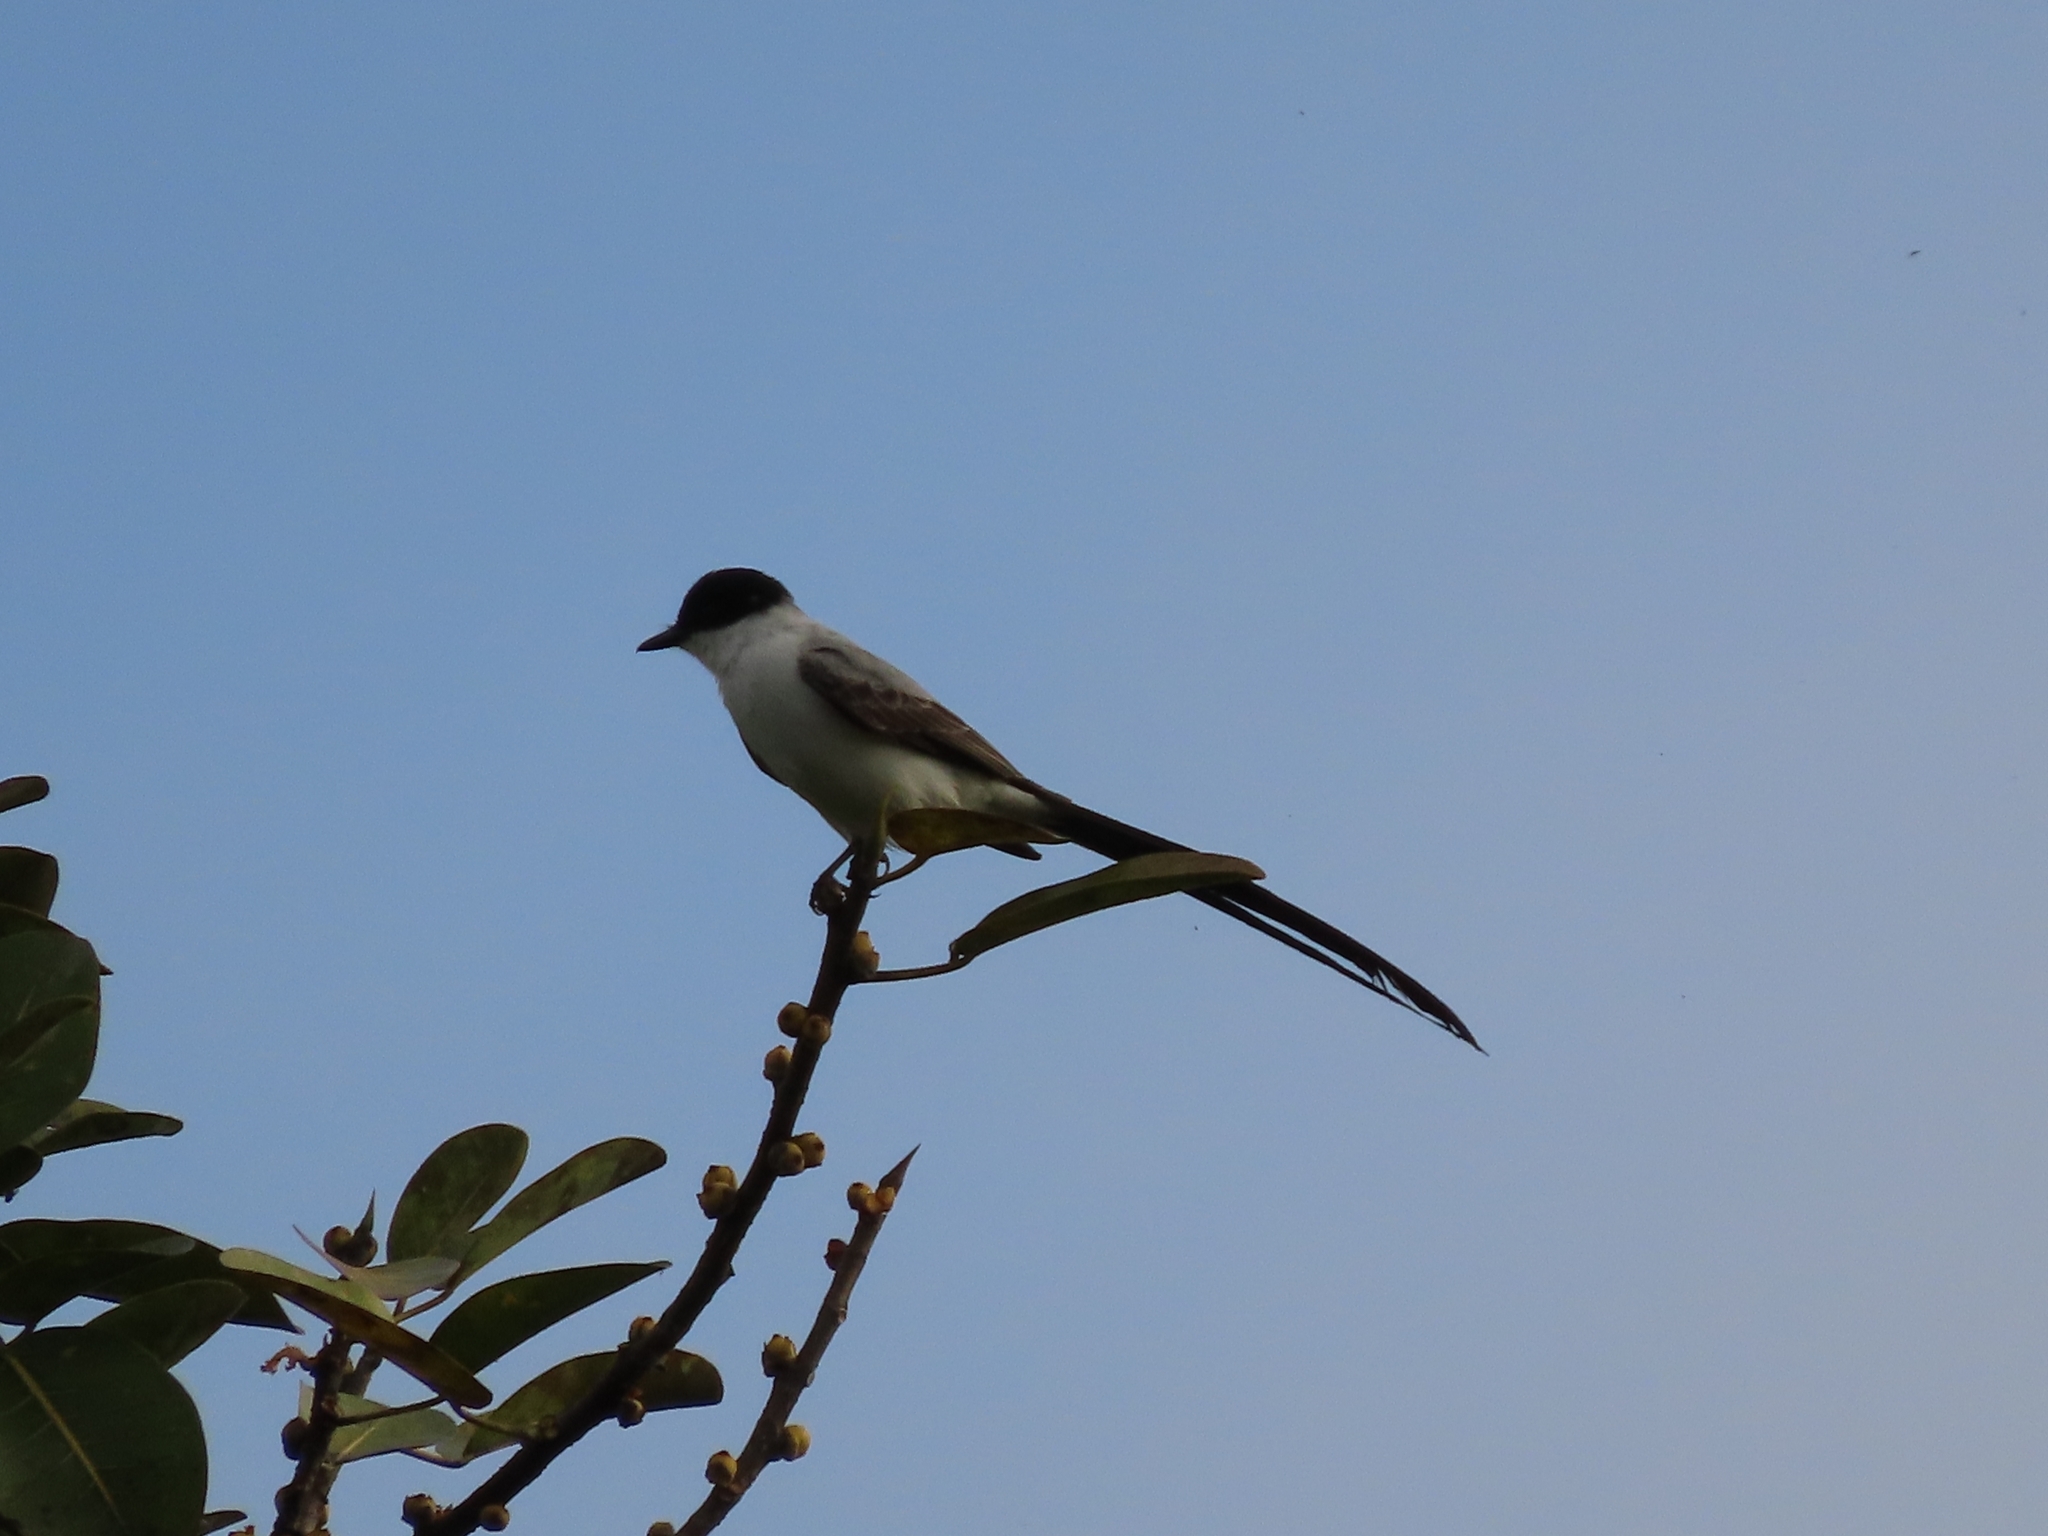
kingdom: Animalia
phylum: Chordata
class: Aves
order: Passeriformes
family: Tyrannidae
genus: Tyrannus
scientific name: Tyrannus savana
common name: Fork-tailed flycatcher
